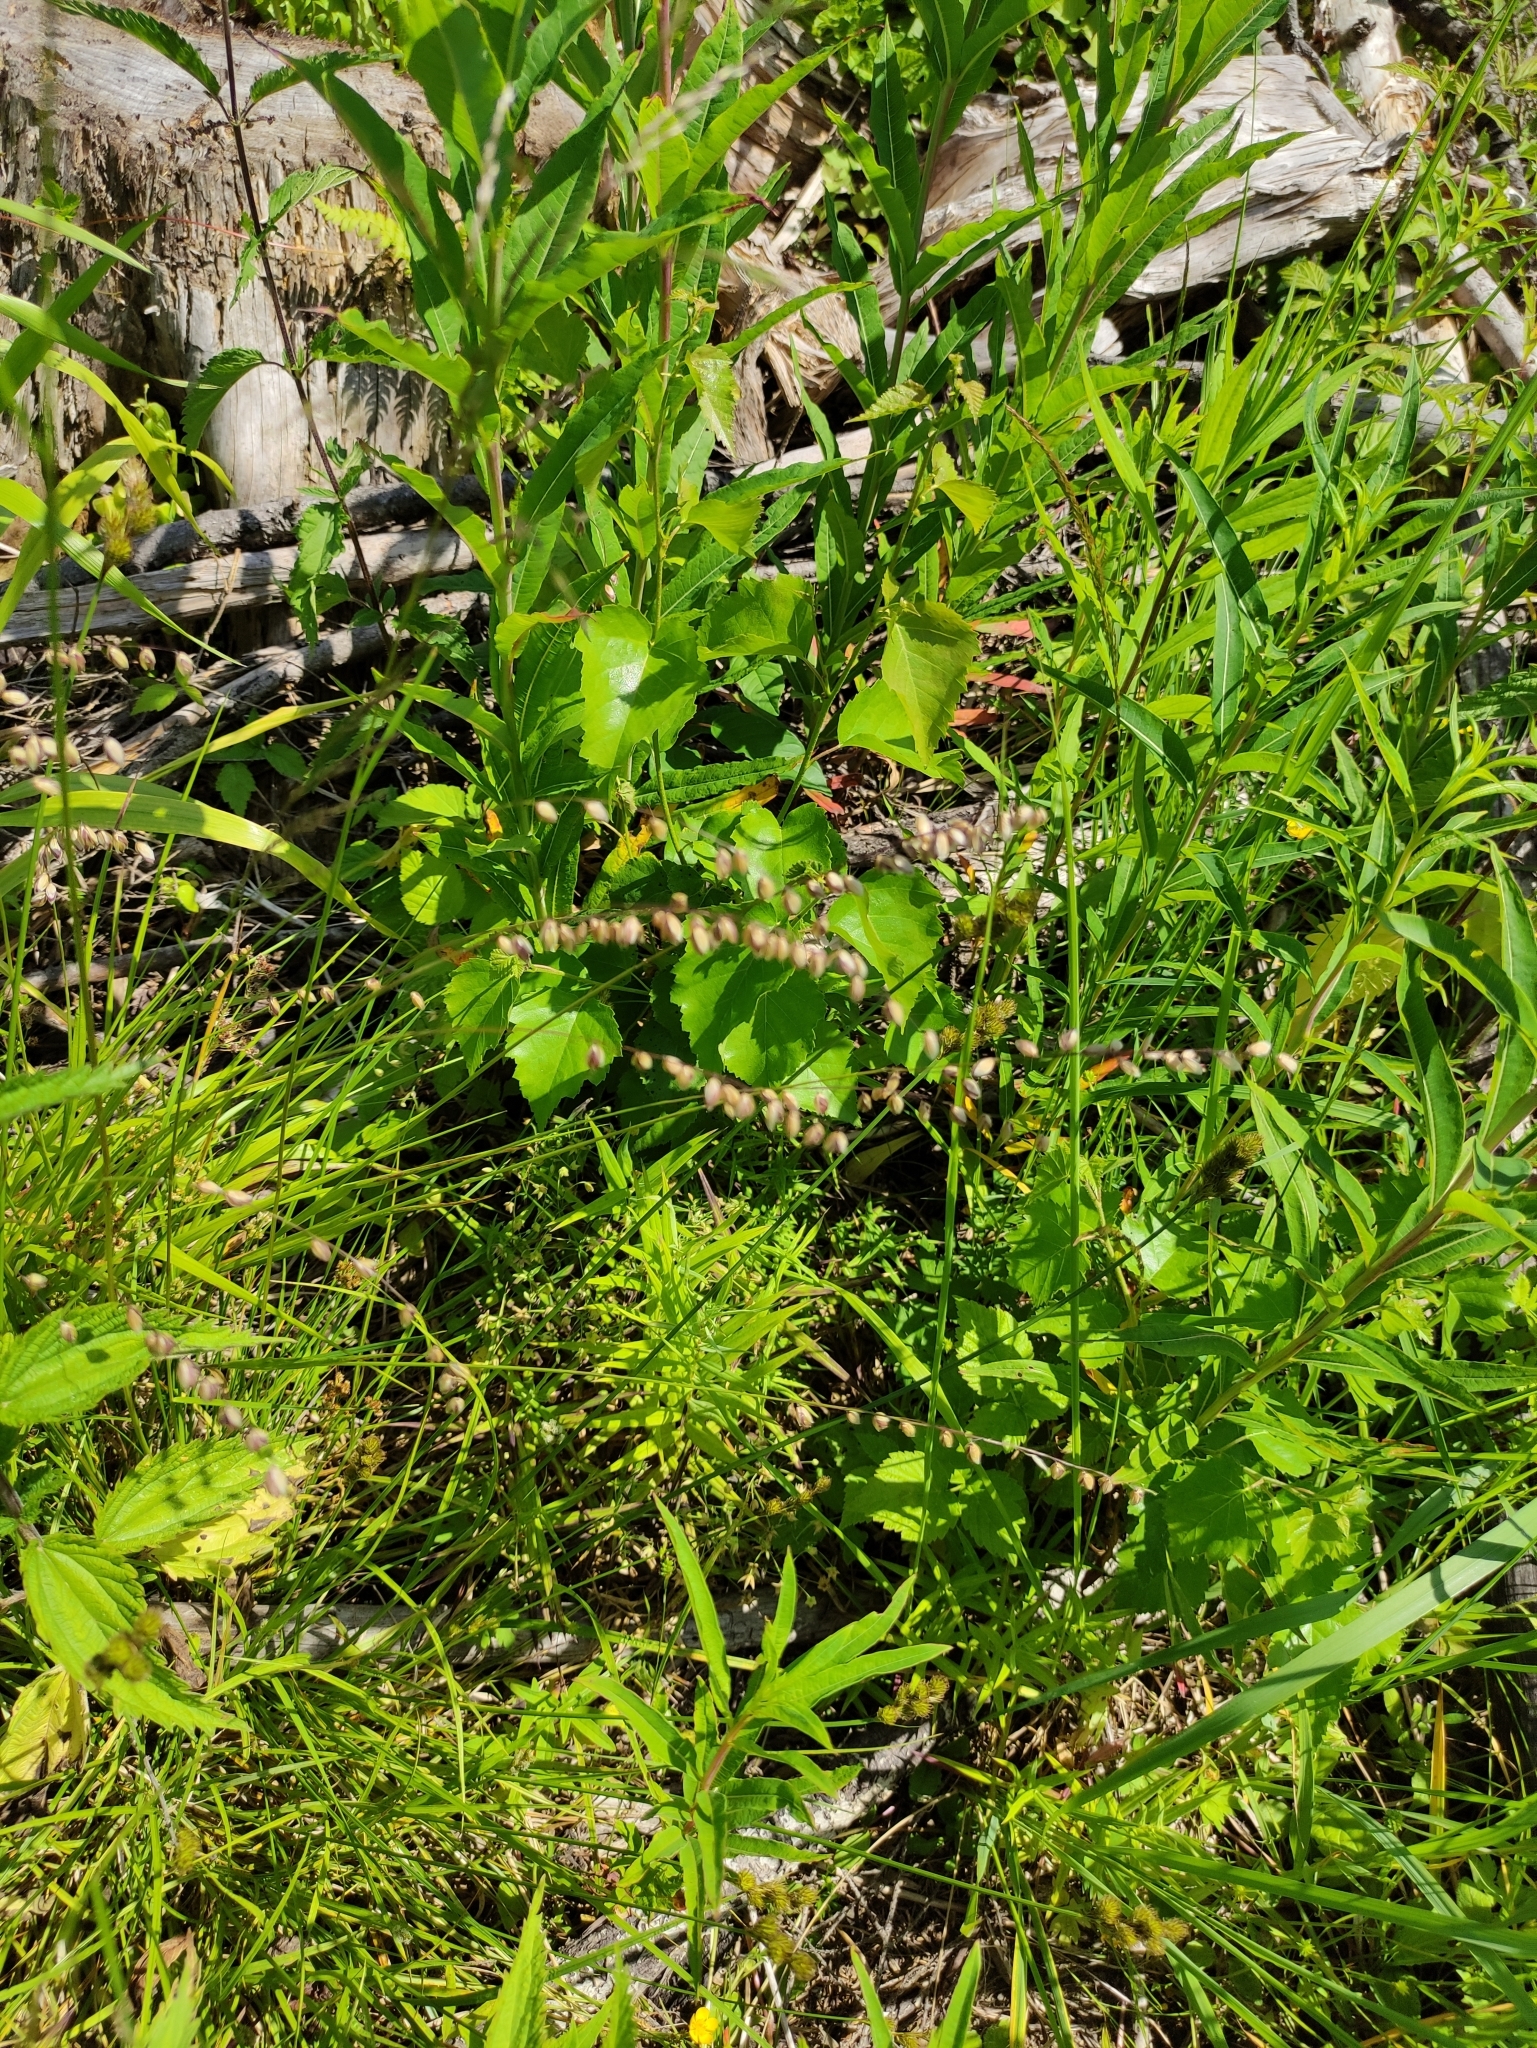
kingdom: Plantae
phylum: Tracheophyta
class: Liliopsida
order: Poales
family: Poaceae
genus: Melica
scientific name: Melica nutans
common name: Mountain melick
